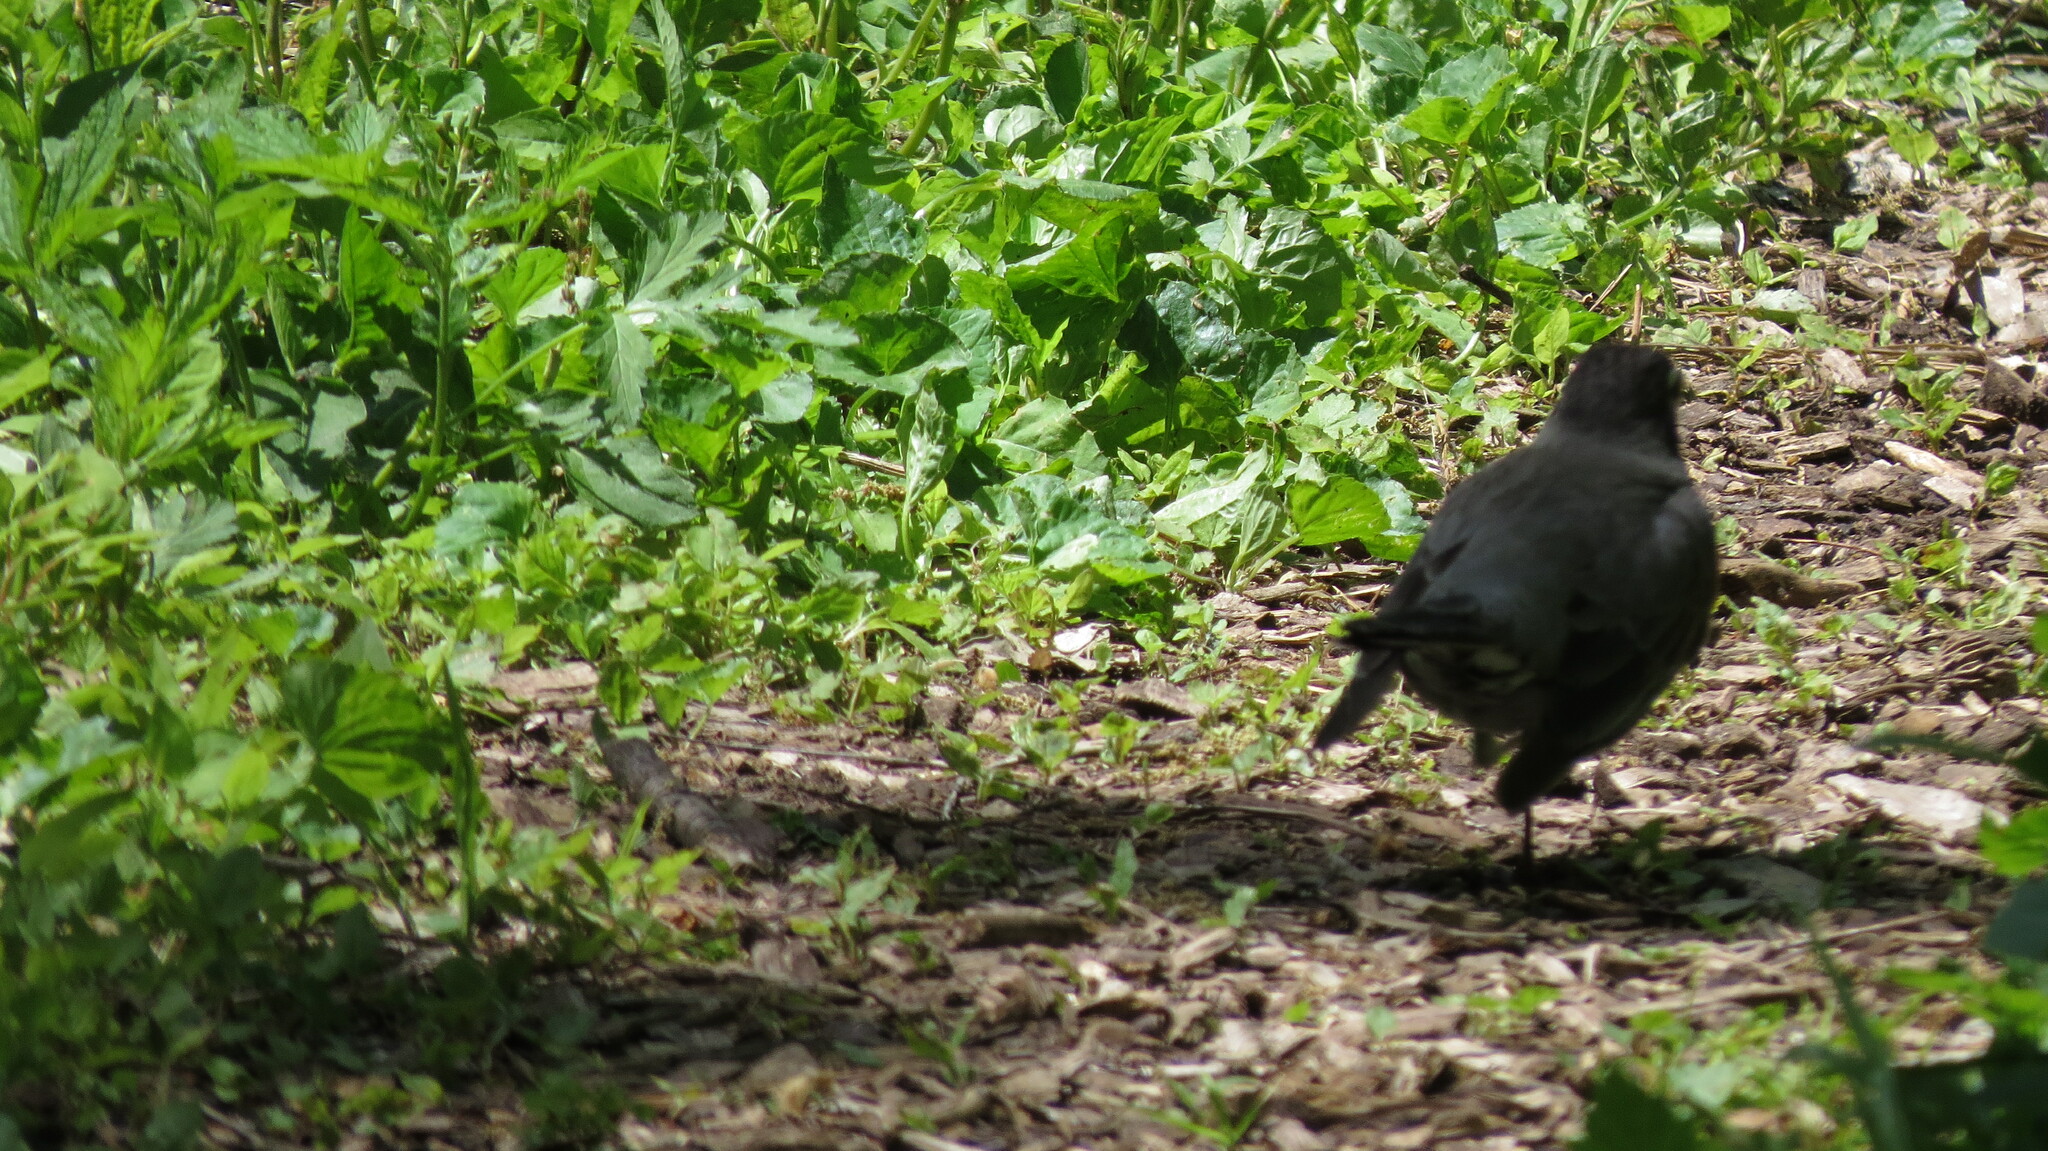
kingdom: Animalia
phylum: Chordata
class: Aves
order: Passeriformes
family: Turdidae
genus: Turdus
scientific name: Turdus migratorius
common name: American robin
